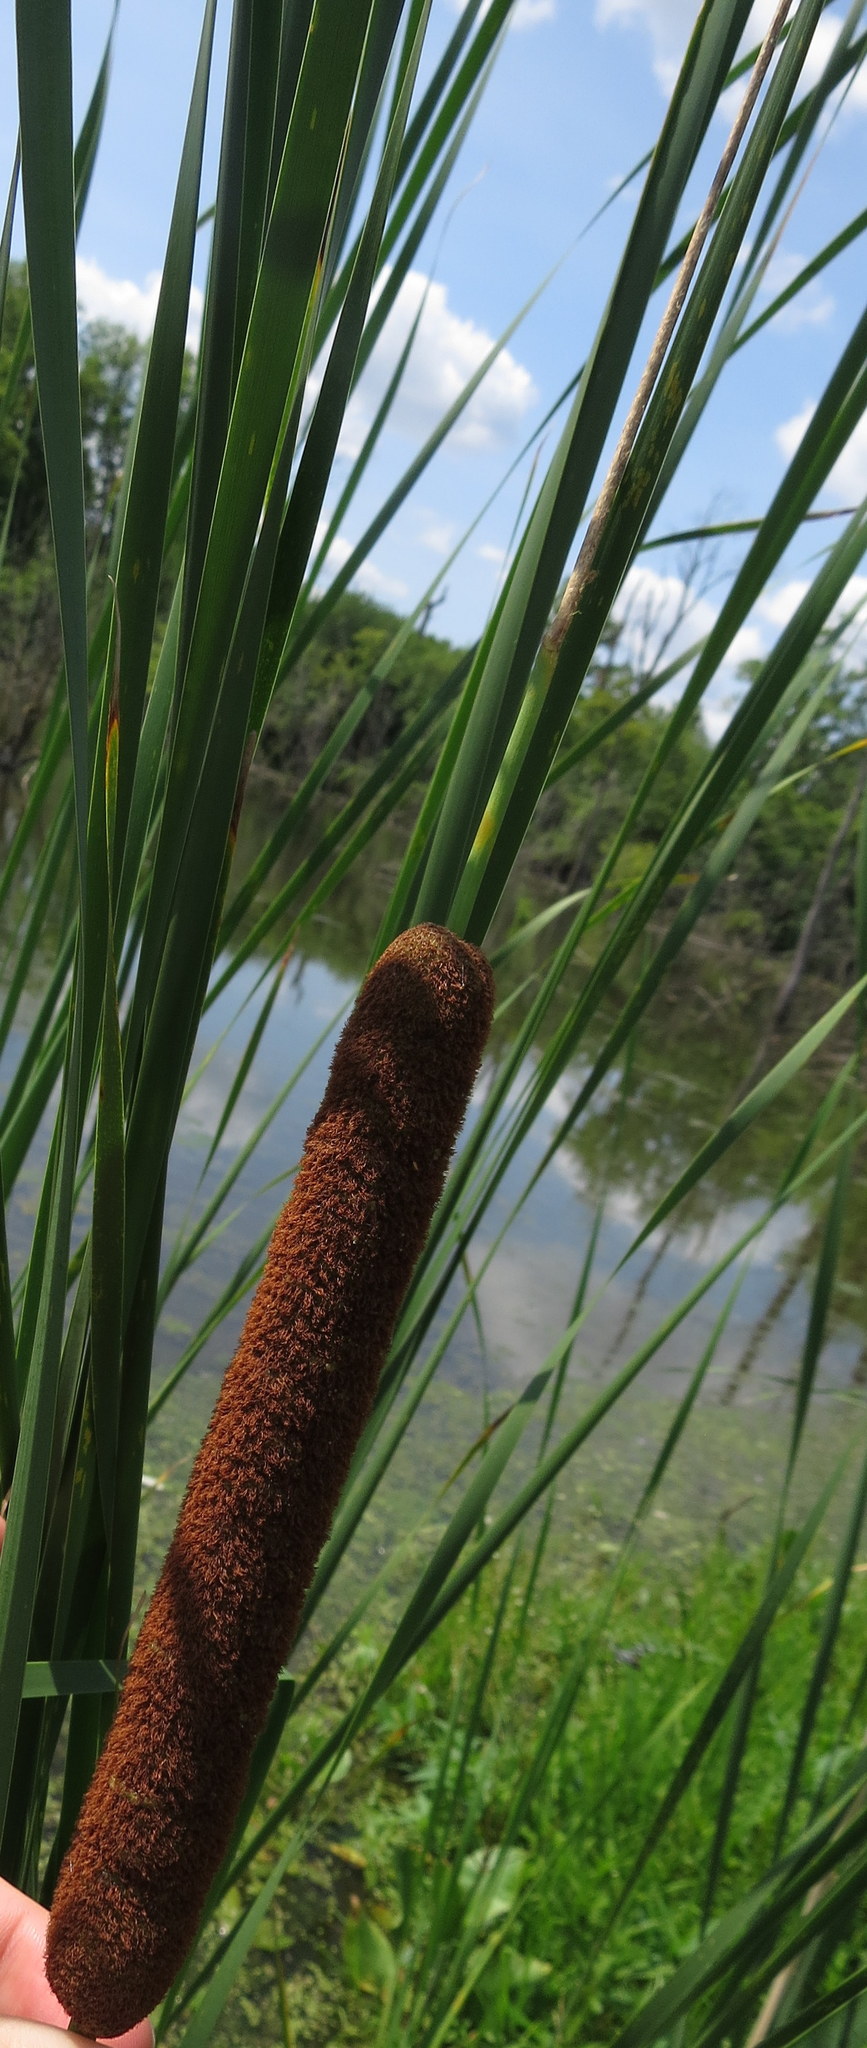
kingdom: Plantae
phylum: Tracheophyta
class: Liliopsida
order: Poales
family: Typhaceae
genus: Typha
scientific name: Typha angustifolia
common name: Lesser bulrush
